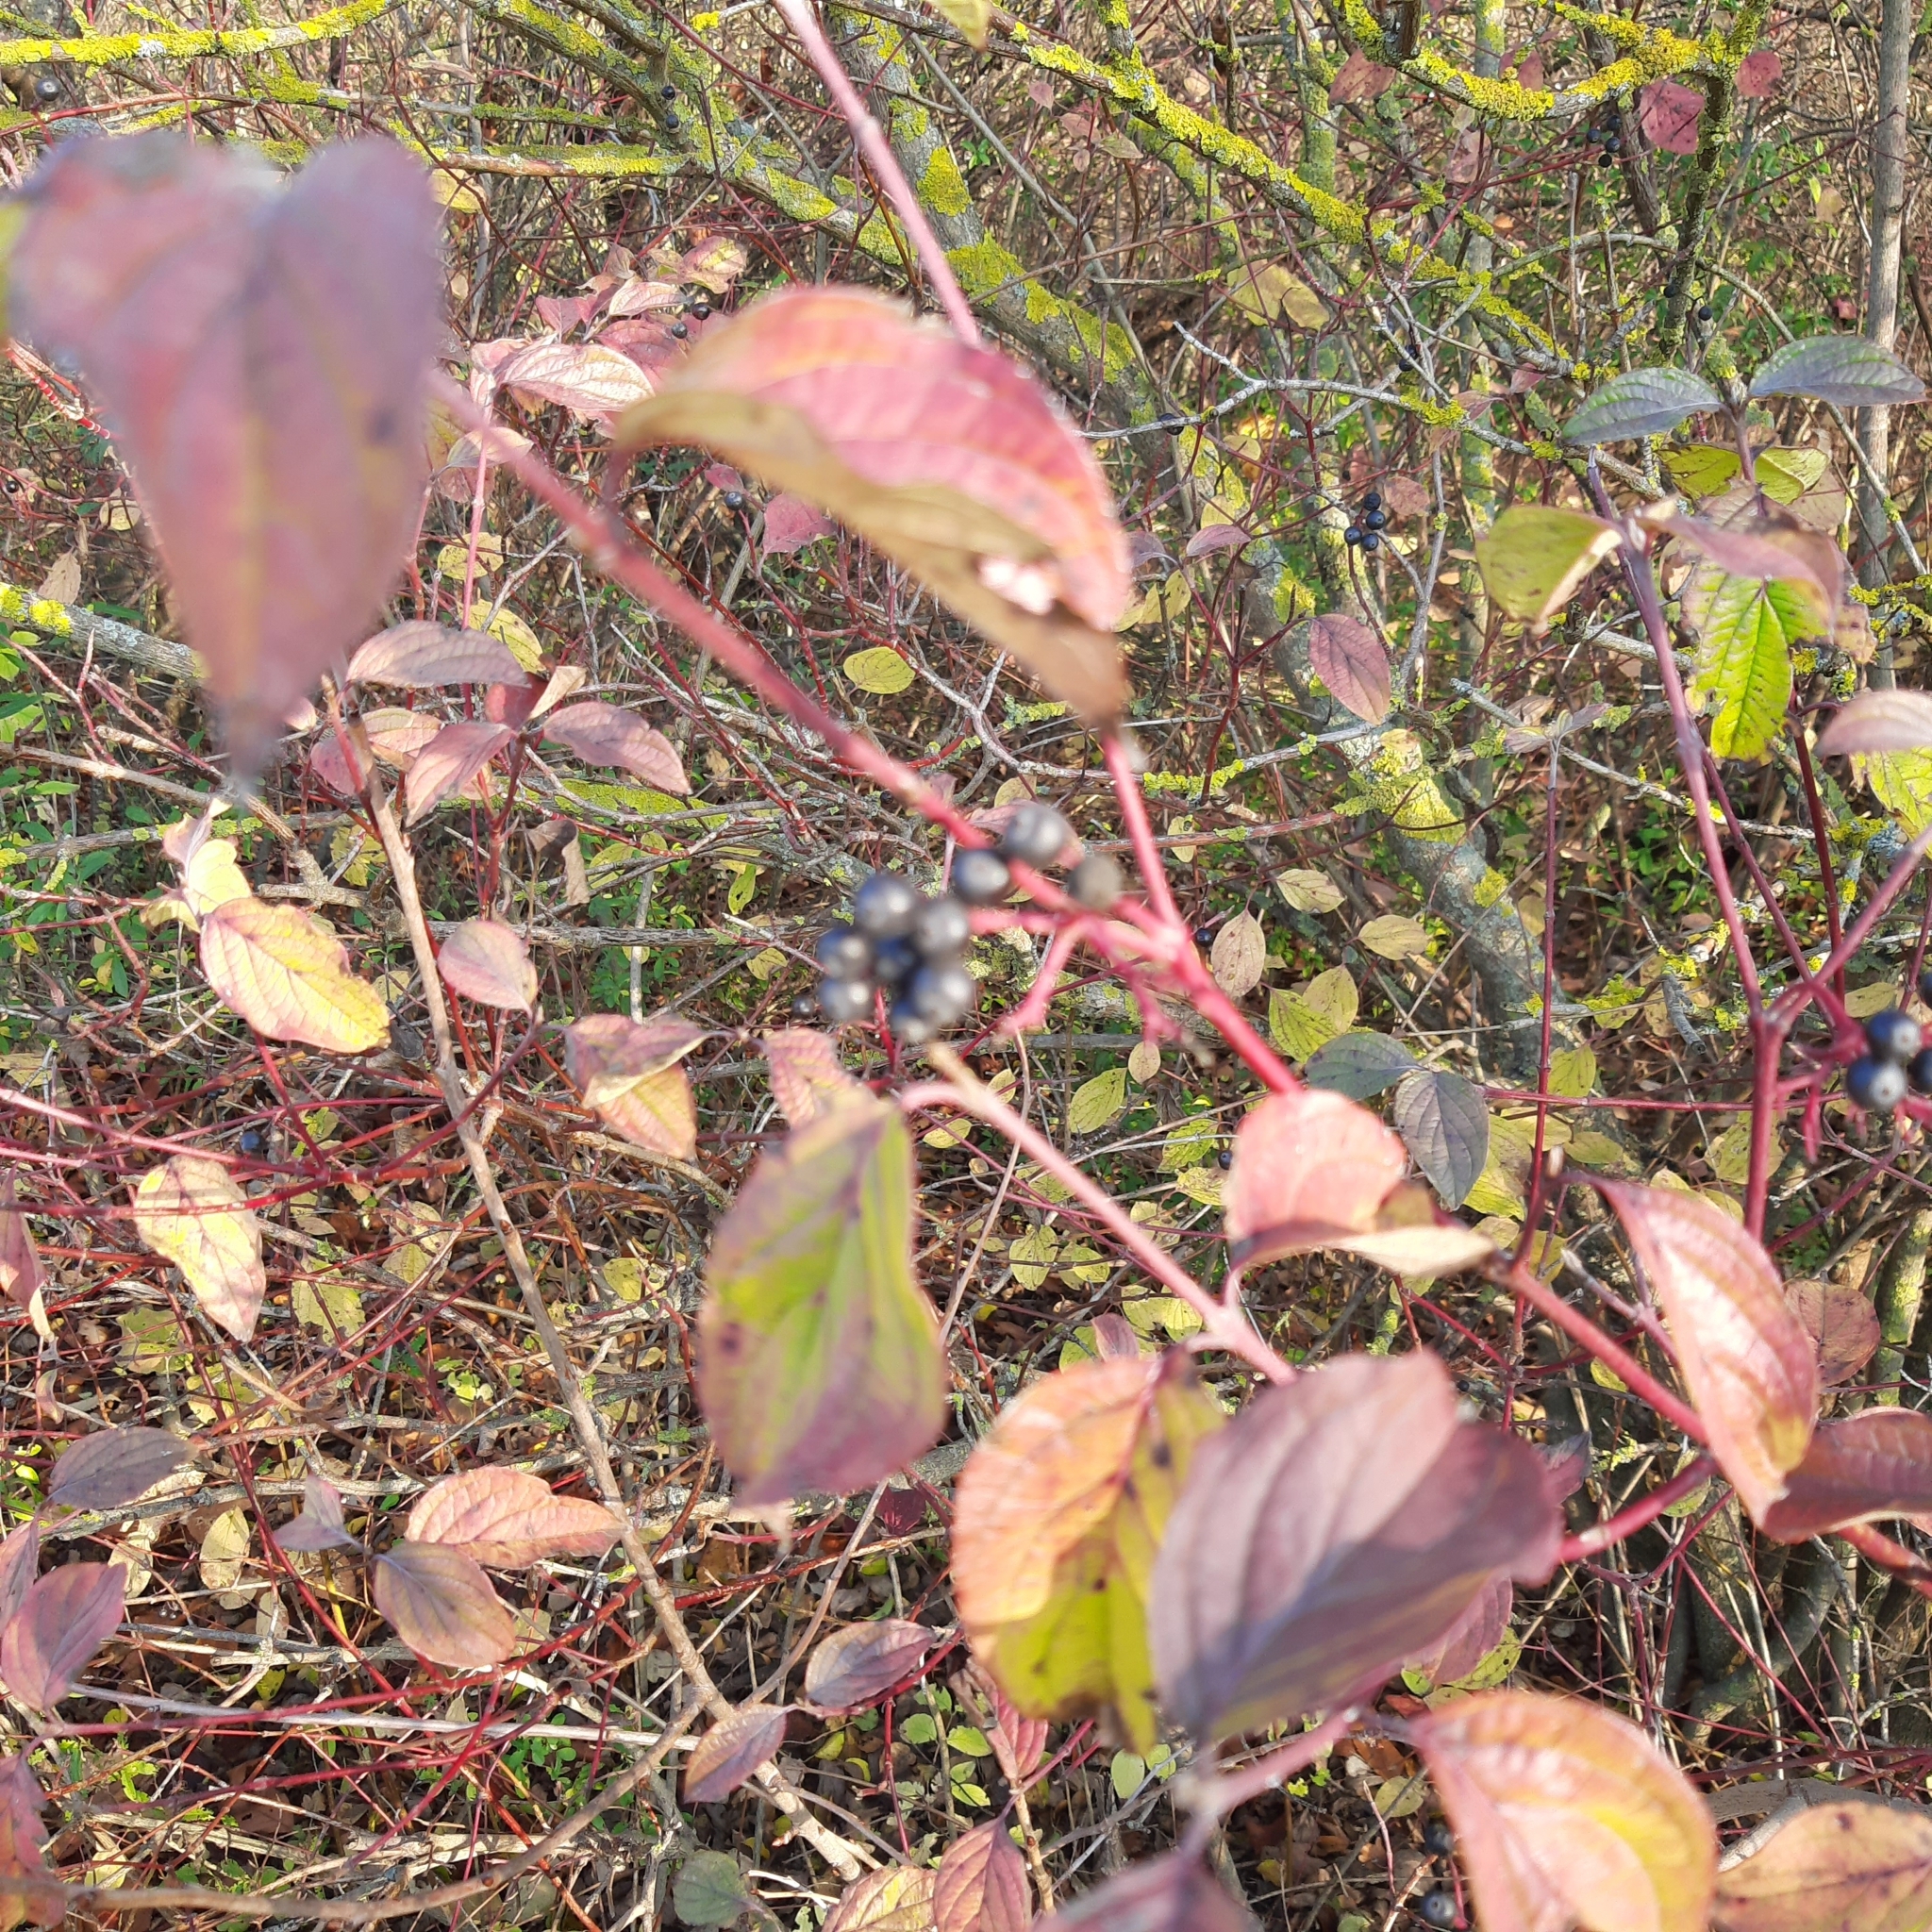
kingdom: Plantae
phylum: Tracheophyta
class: Magnoliopsida
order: Cornales
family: Cornaceae
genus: Cornus
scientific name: Cornus sanguinea
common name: Dogwood
